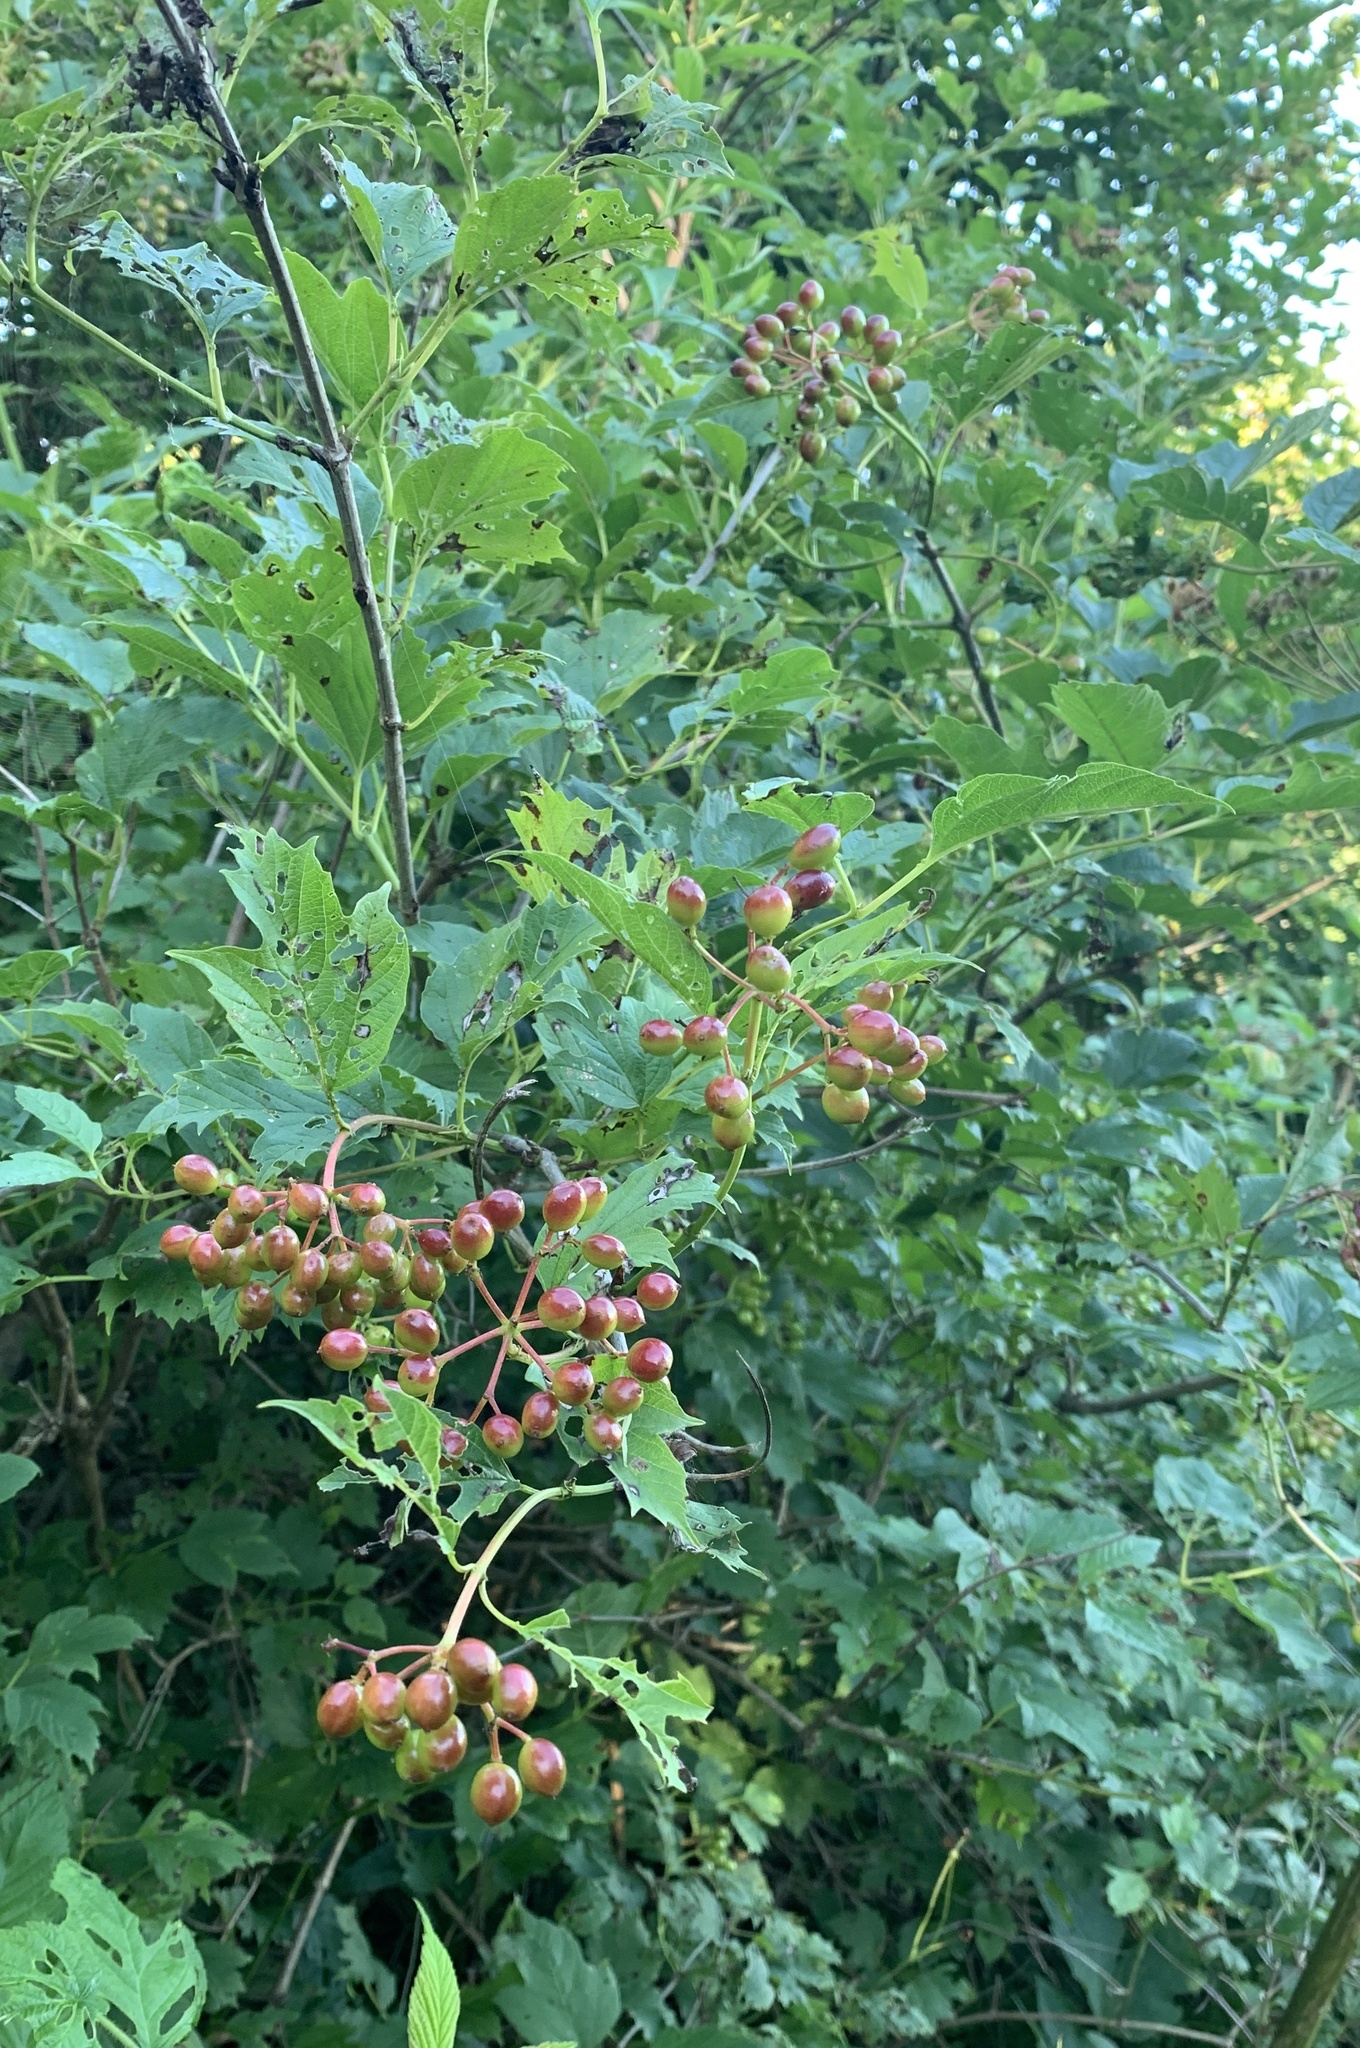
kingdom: Plantae
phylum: Tracheophyta
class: Magnoliopsida
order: Dipsacales
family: Viburnaceae
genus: Viburnum
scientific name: Viburnum opulus
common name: Guelder-rose
